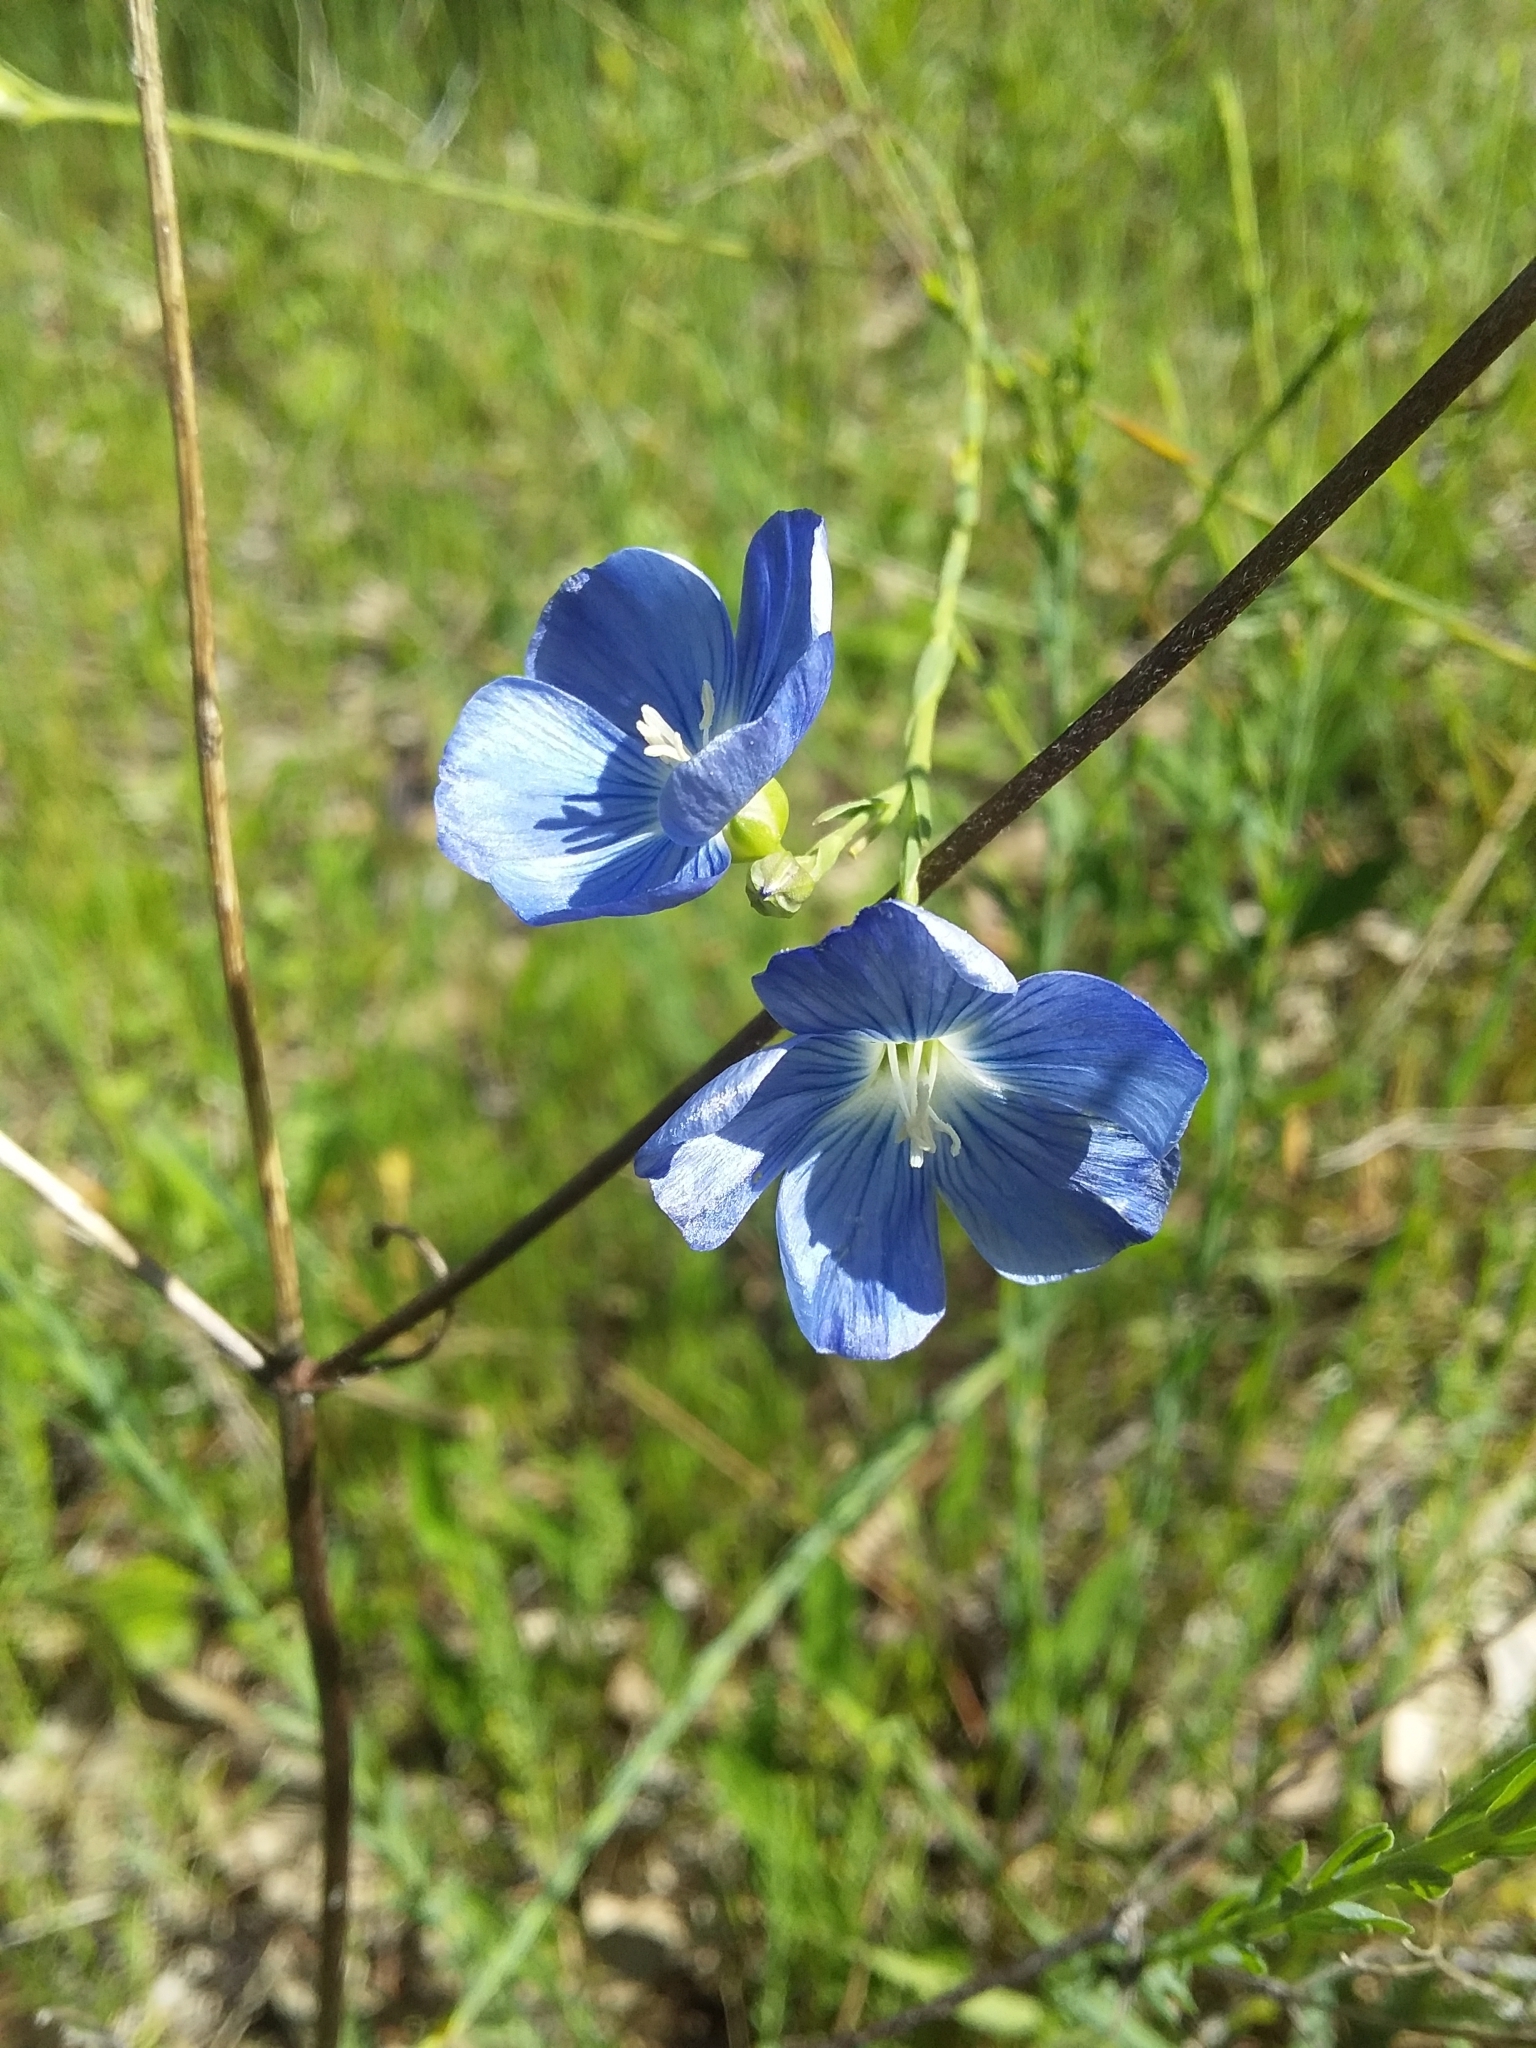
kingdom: Plantae
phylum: Tracheophyta
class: Magnoliopsida
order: Malpighiales
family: Linaceae
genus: Linum
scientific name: Linum marginale
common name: Wild flax
